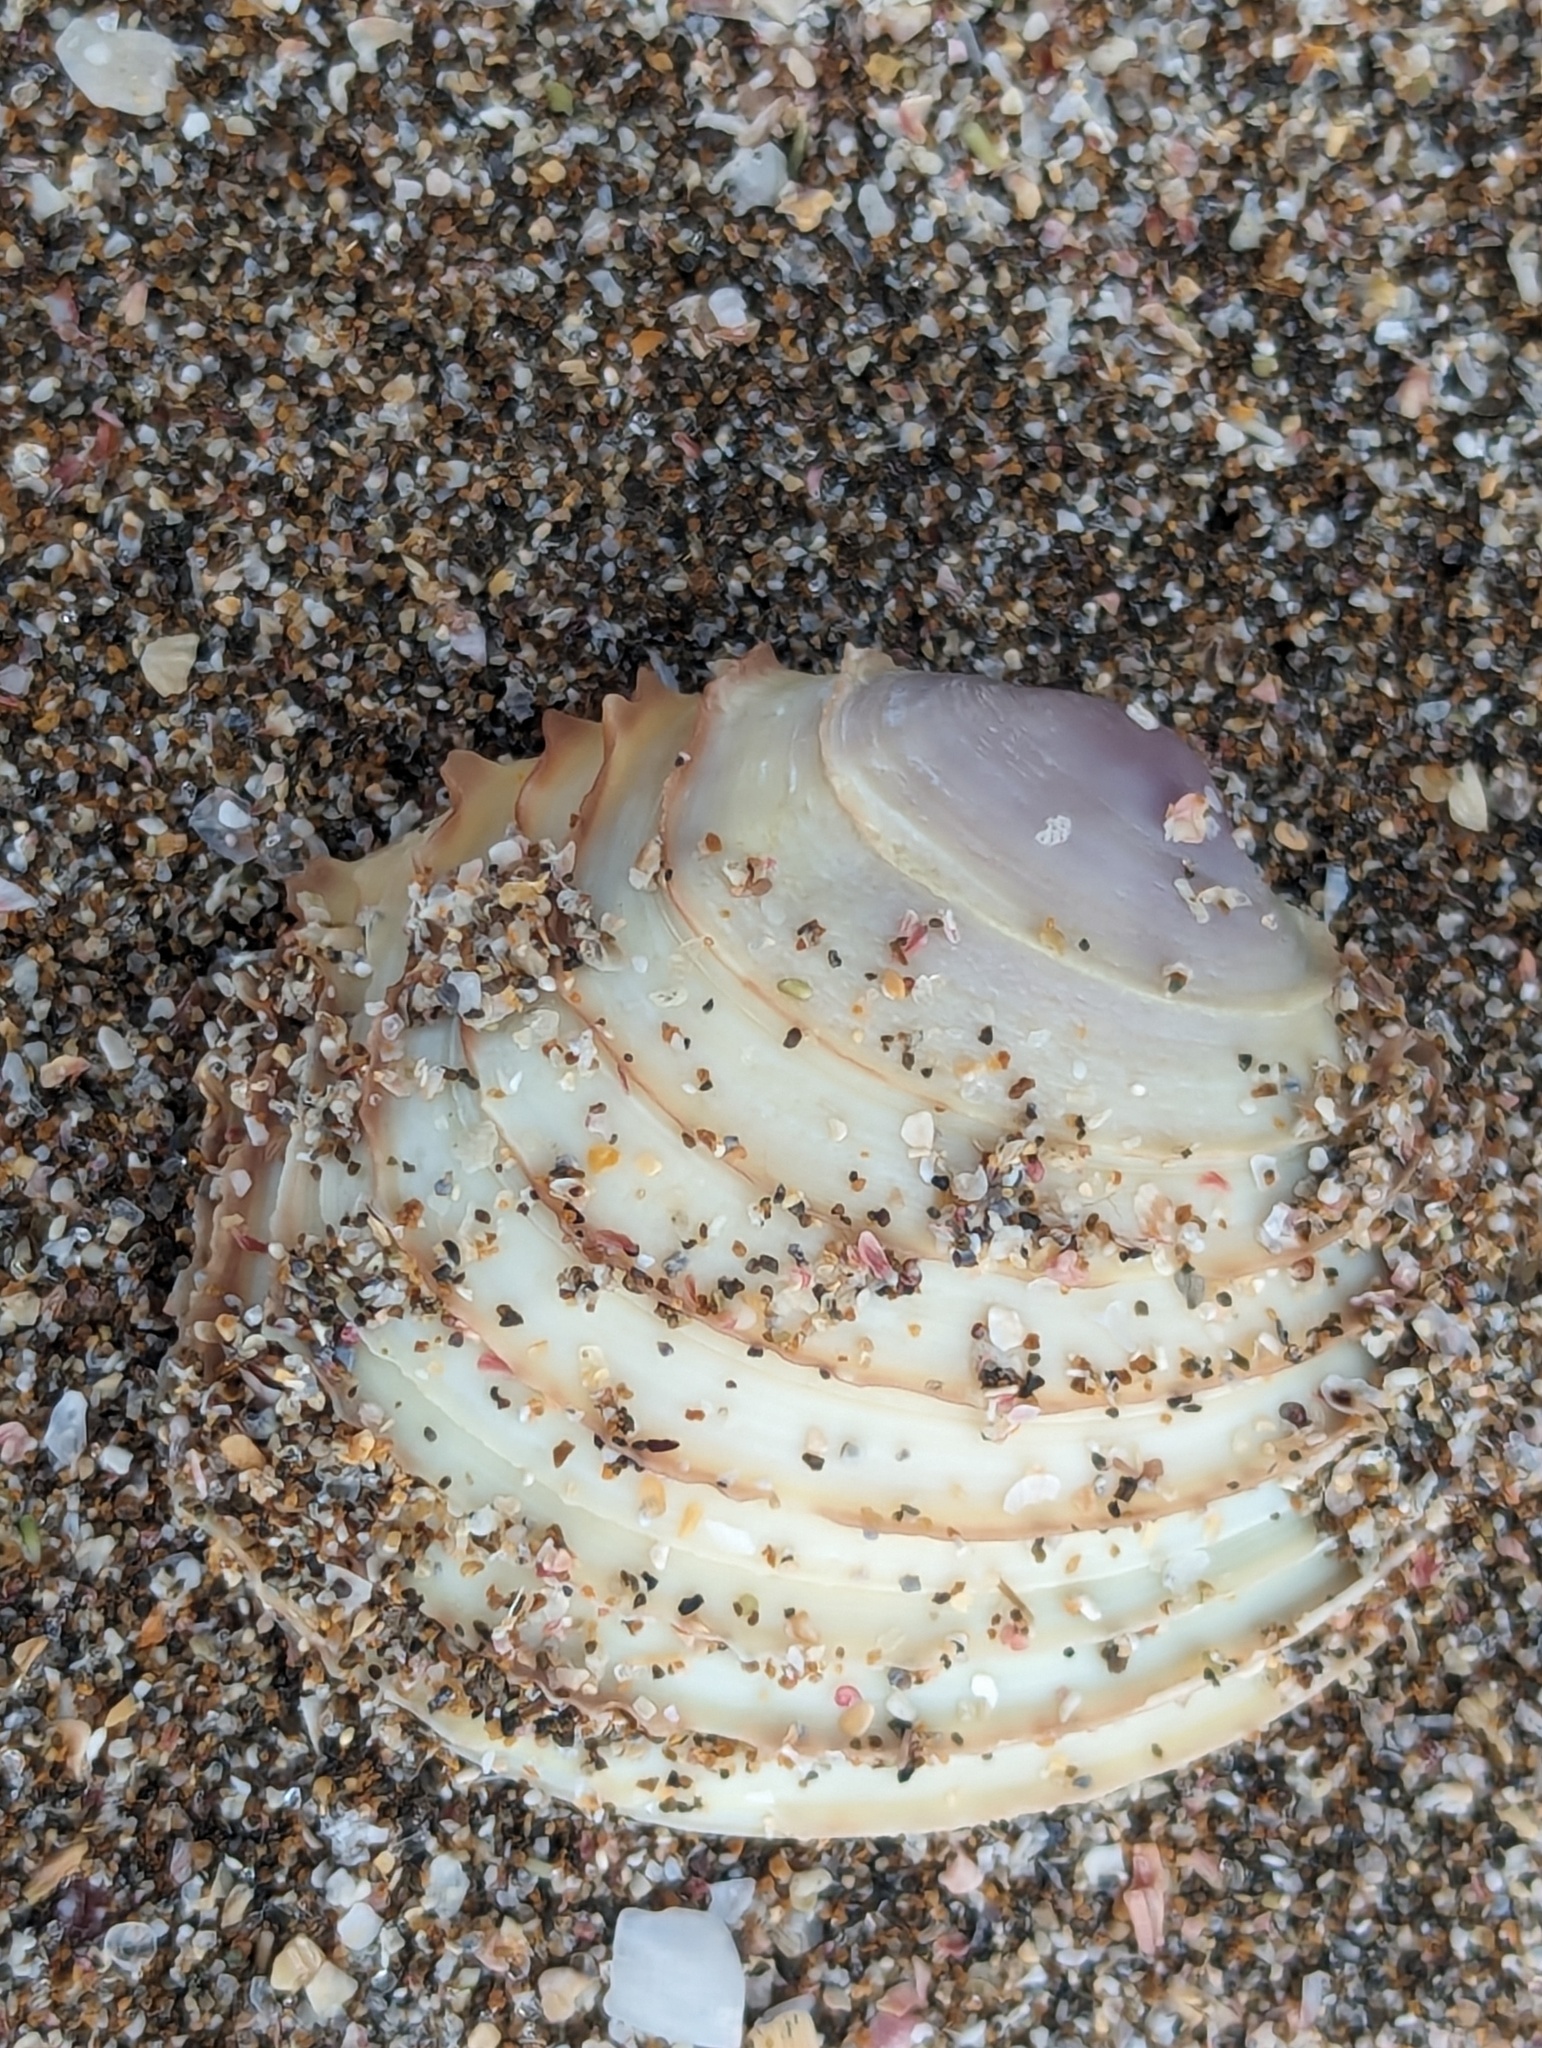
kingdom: Animalia
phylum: Mollusca
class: Bivalvia
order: Venerida
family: Veneridae
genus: Bassina
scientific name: Bassina yatei
